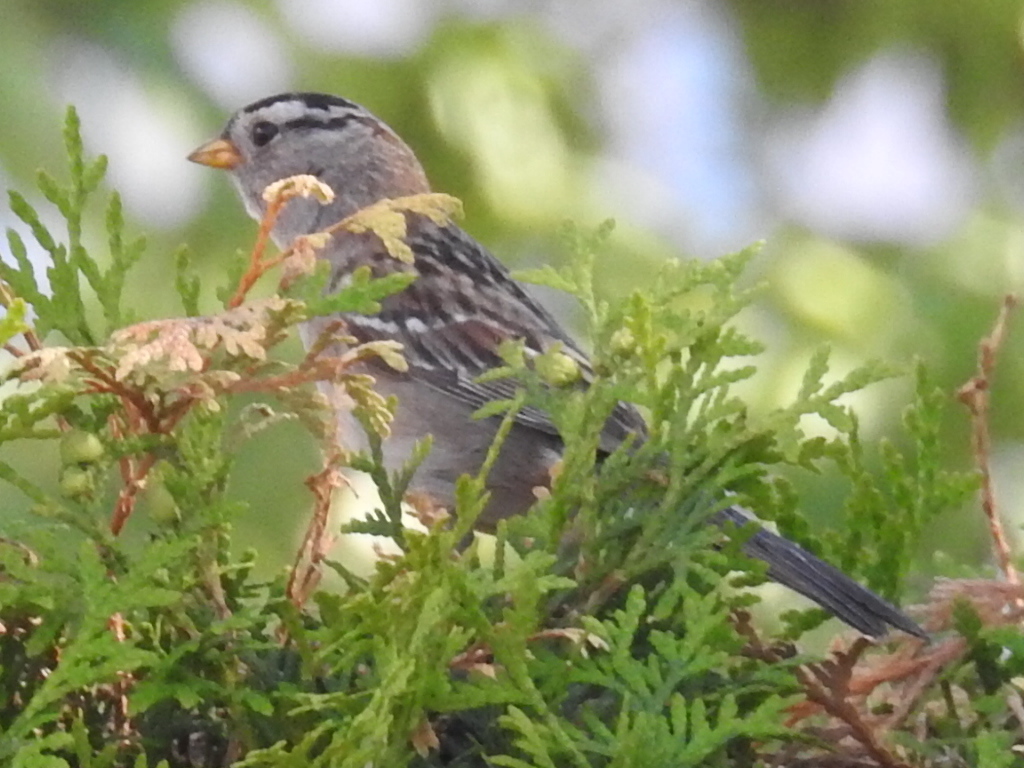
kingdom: Animalia
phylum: Chordata
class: Aves
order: Passeriformes
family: Passerellidae
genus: Zonotrichia
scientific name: Zonotrichia leucophrys
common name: White-crowned sparrow
